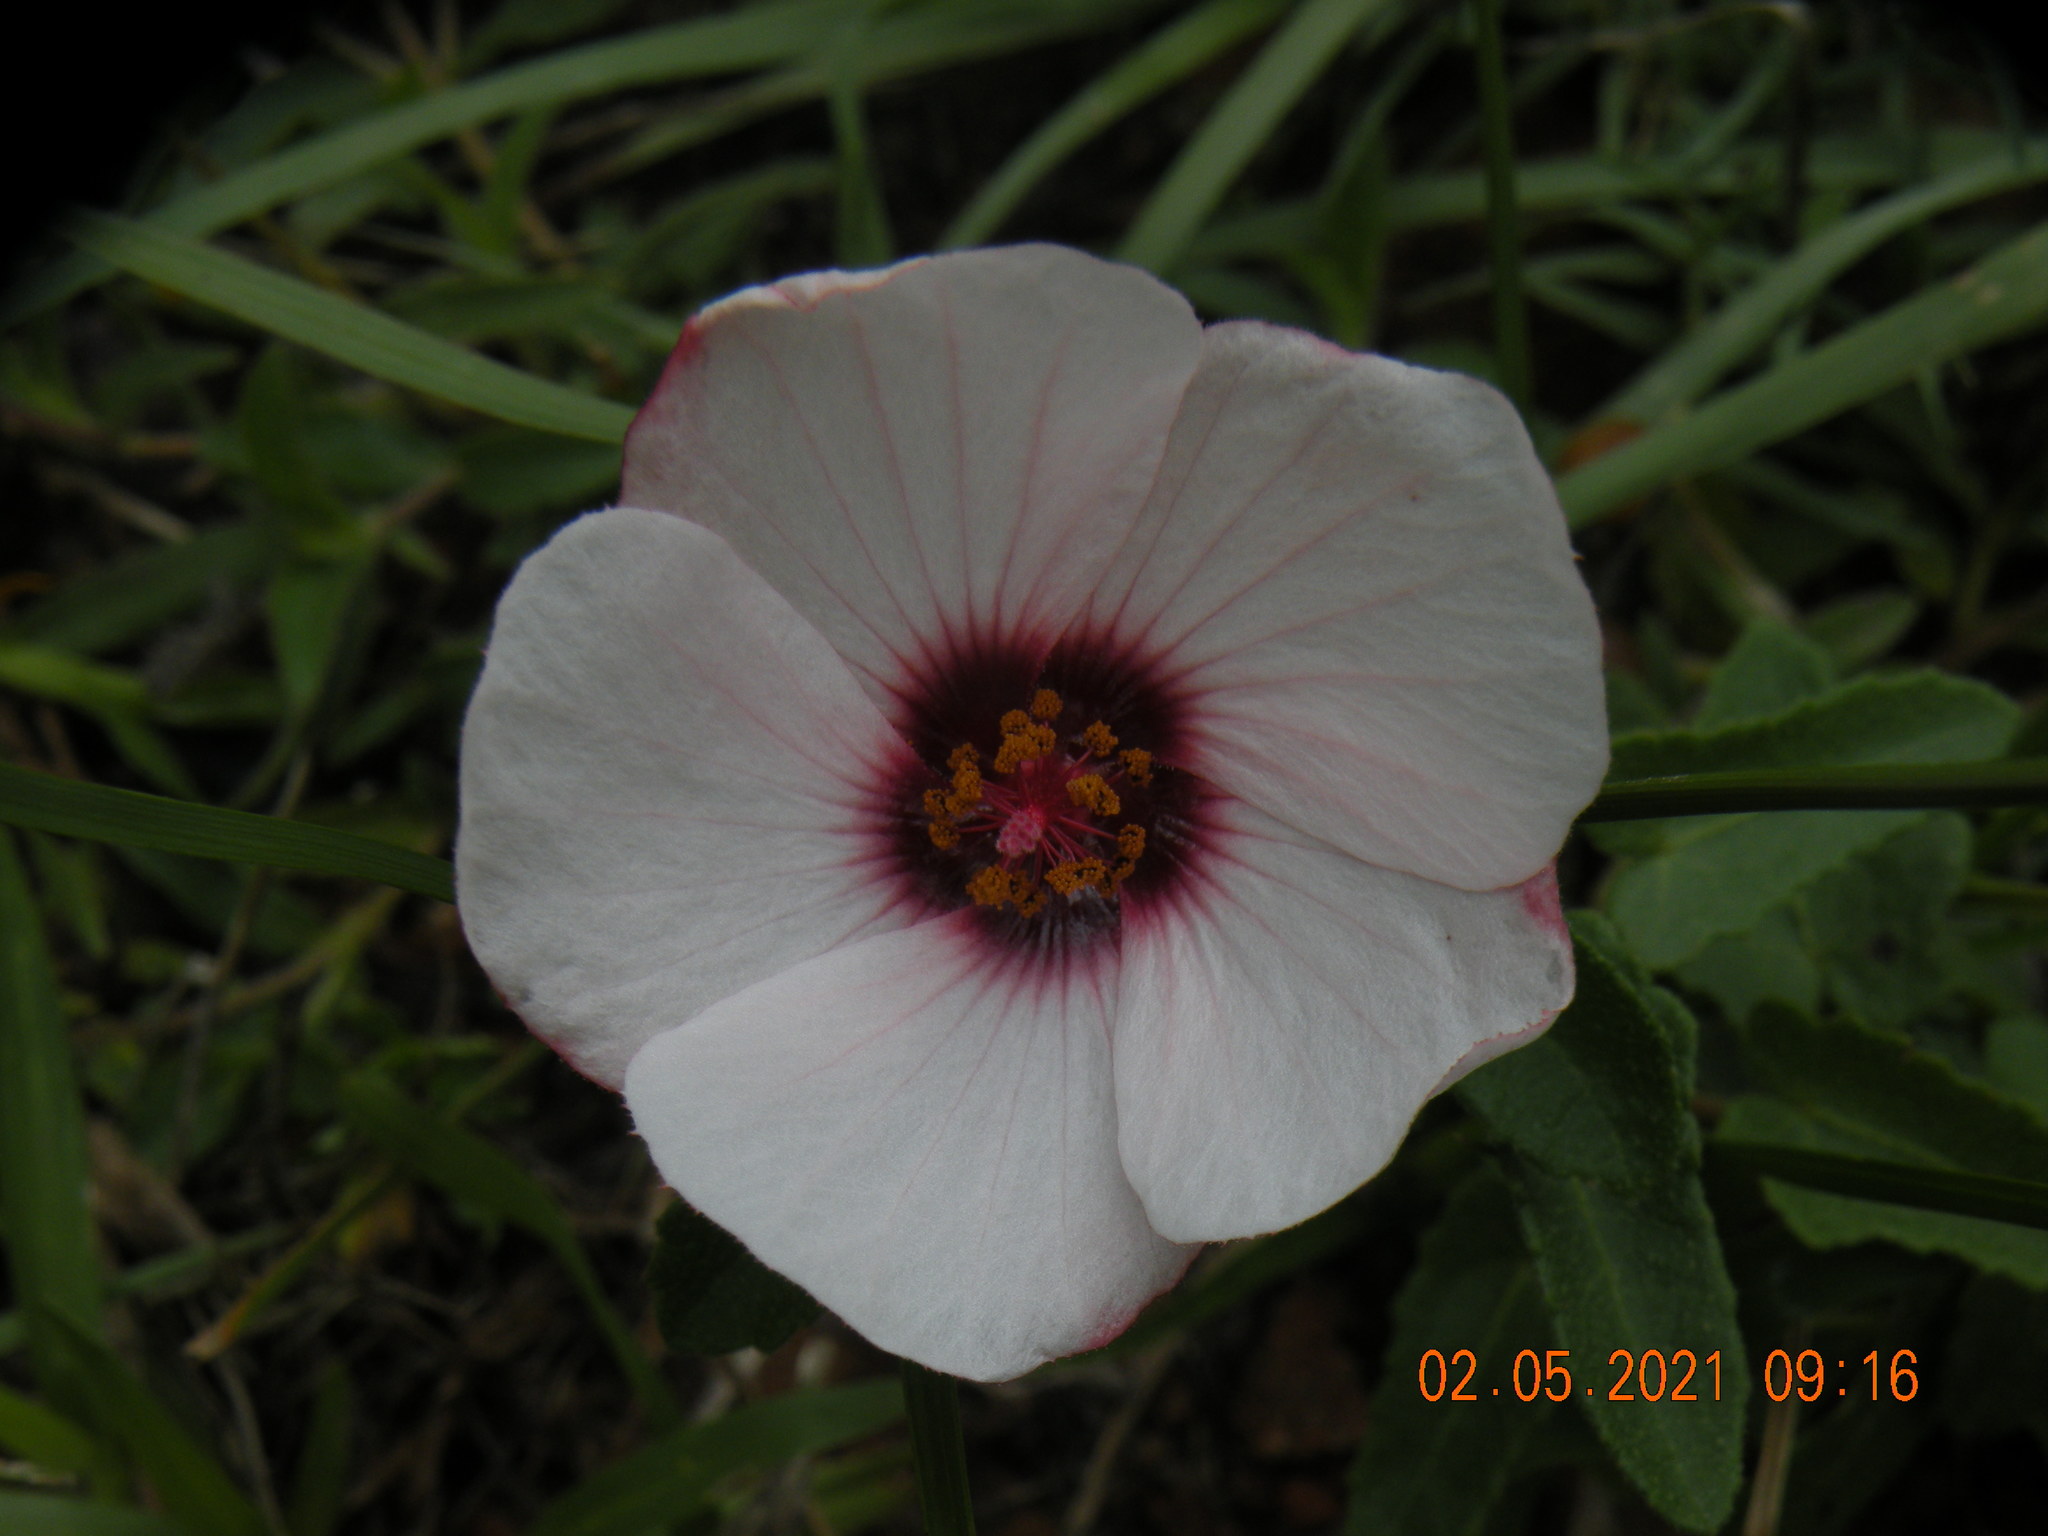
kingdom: Plantae
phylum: Tracheophyta
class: Magnoliopsida
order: Malvales
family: Malvaceae
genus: Pavonia
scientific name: Pavonia hastata
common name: Spearleaf swampmallow
